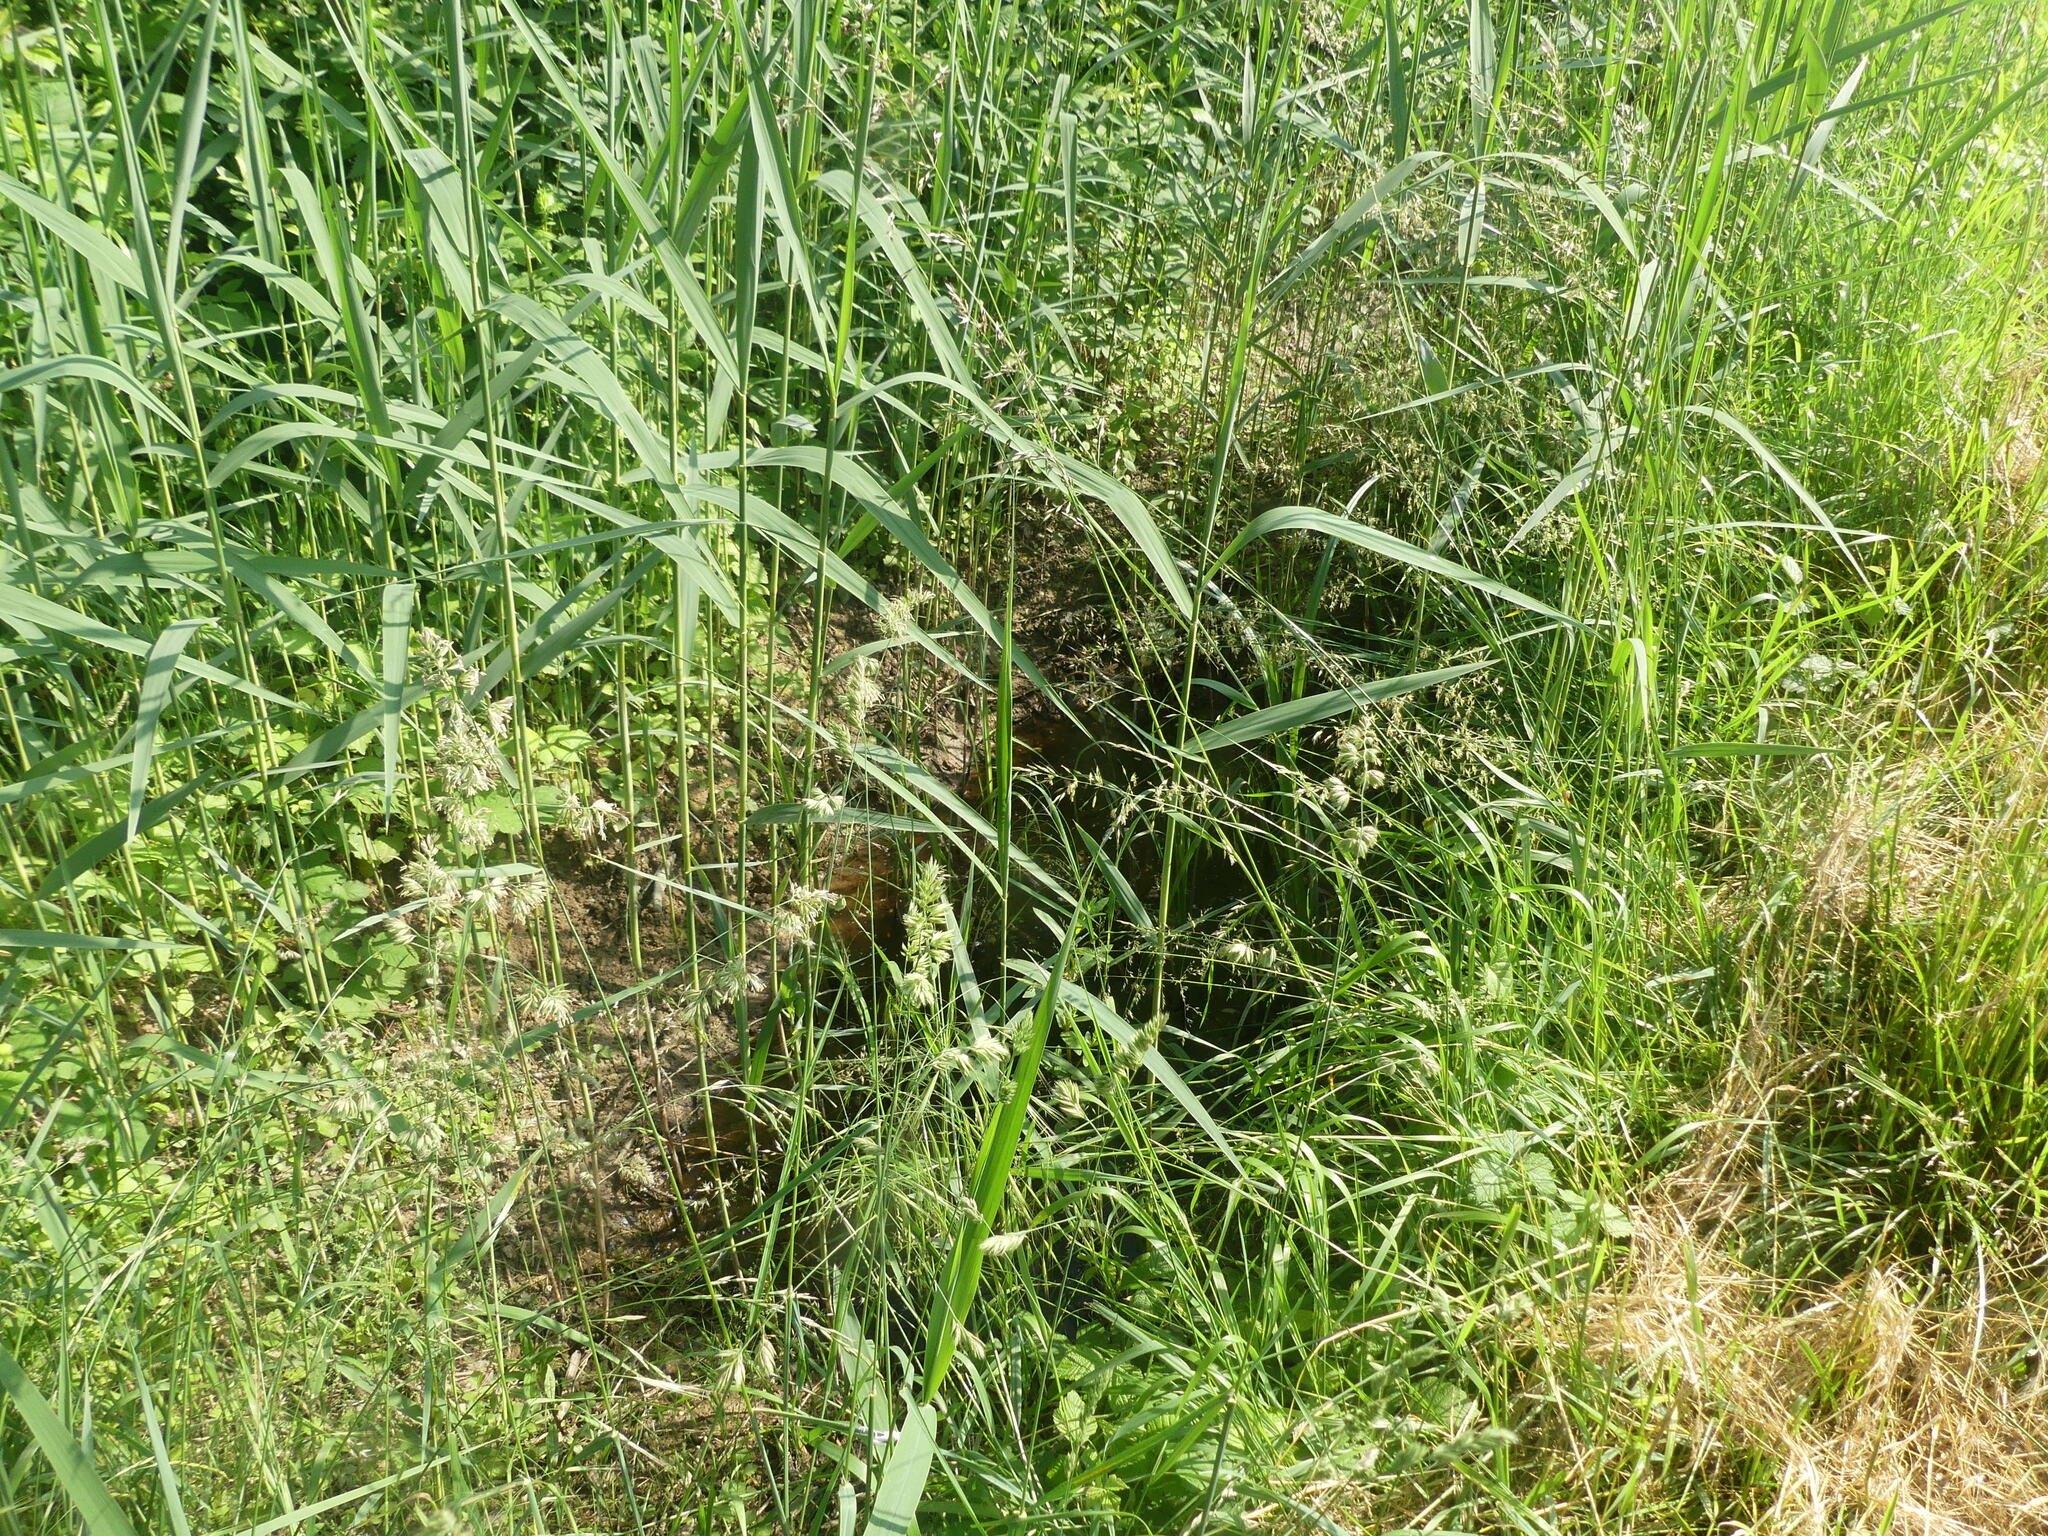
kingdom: Animalia
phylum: Chordata
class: Amphibia
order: Anura
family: Bombinatoridae
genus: Bombina
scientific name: Bombina variegata
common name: Yellow-bellied toad
